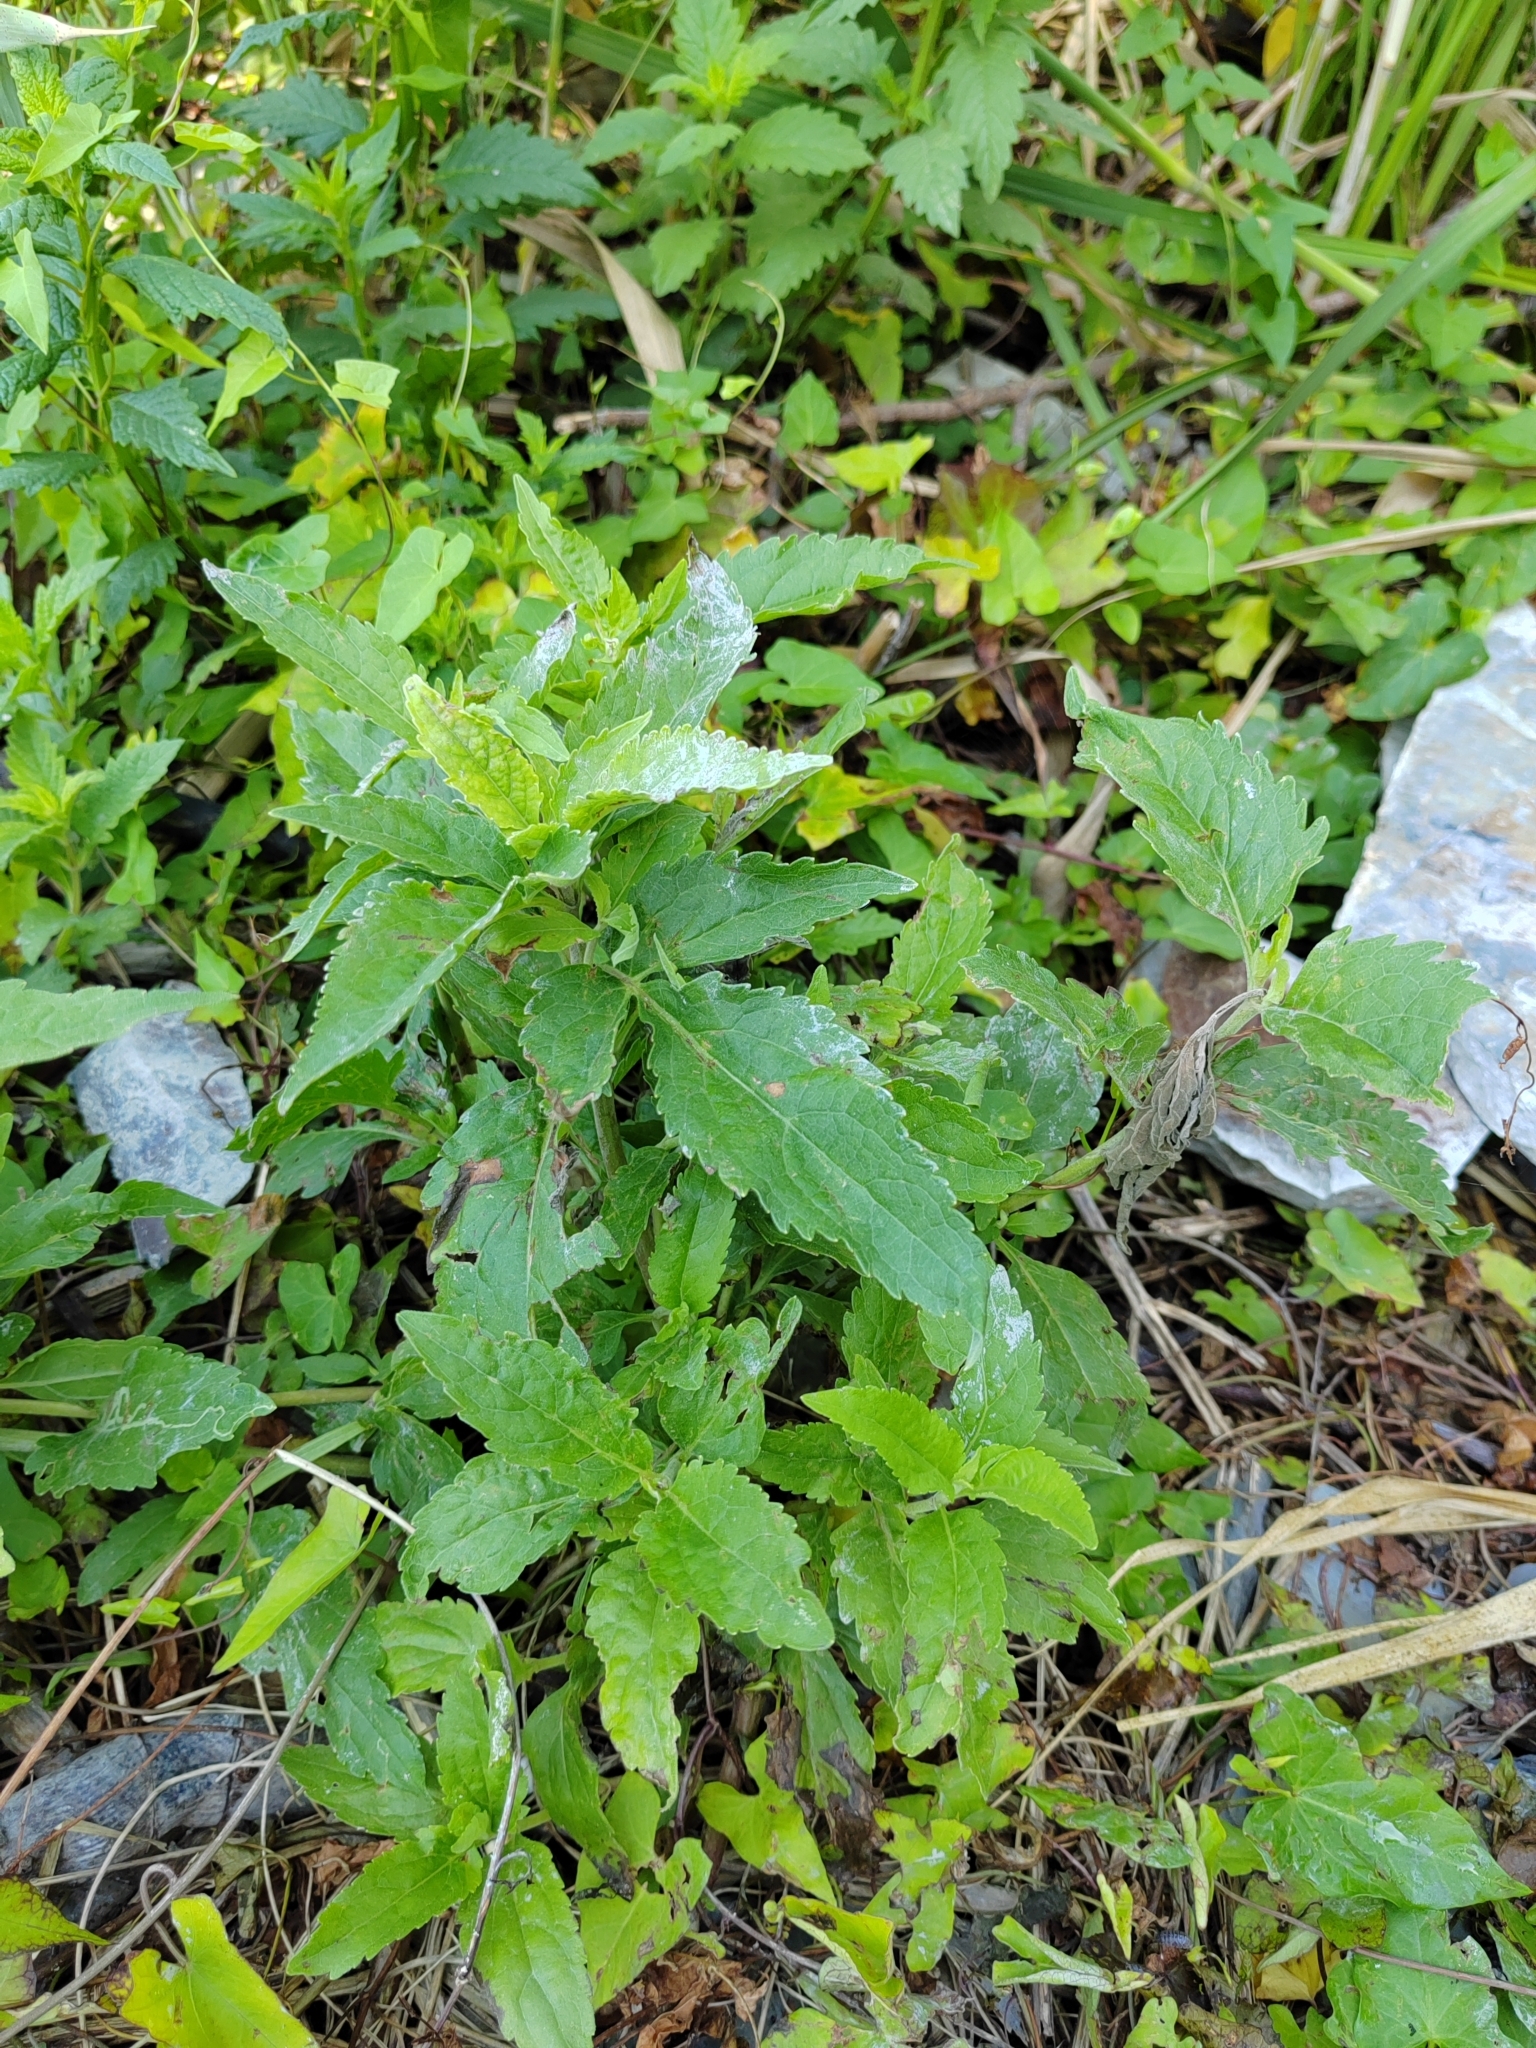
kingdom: Plantae
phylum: Tracheophyta
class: Magnoliopsida
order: Asterales
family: Asteraceae
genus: Eupatorium
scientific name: Eupatorium cannabinum
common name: Hemp-agrimony
